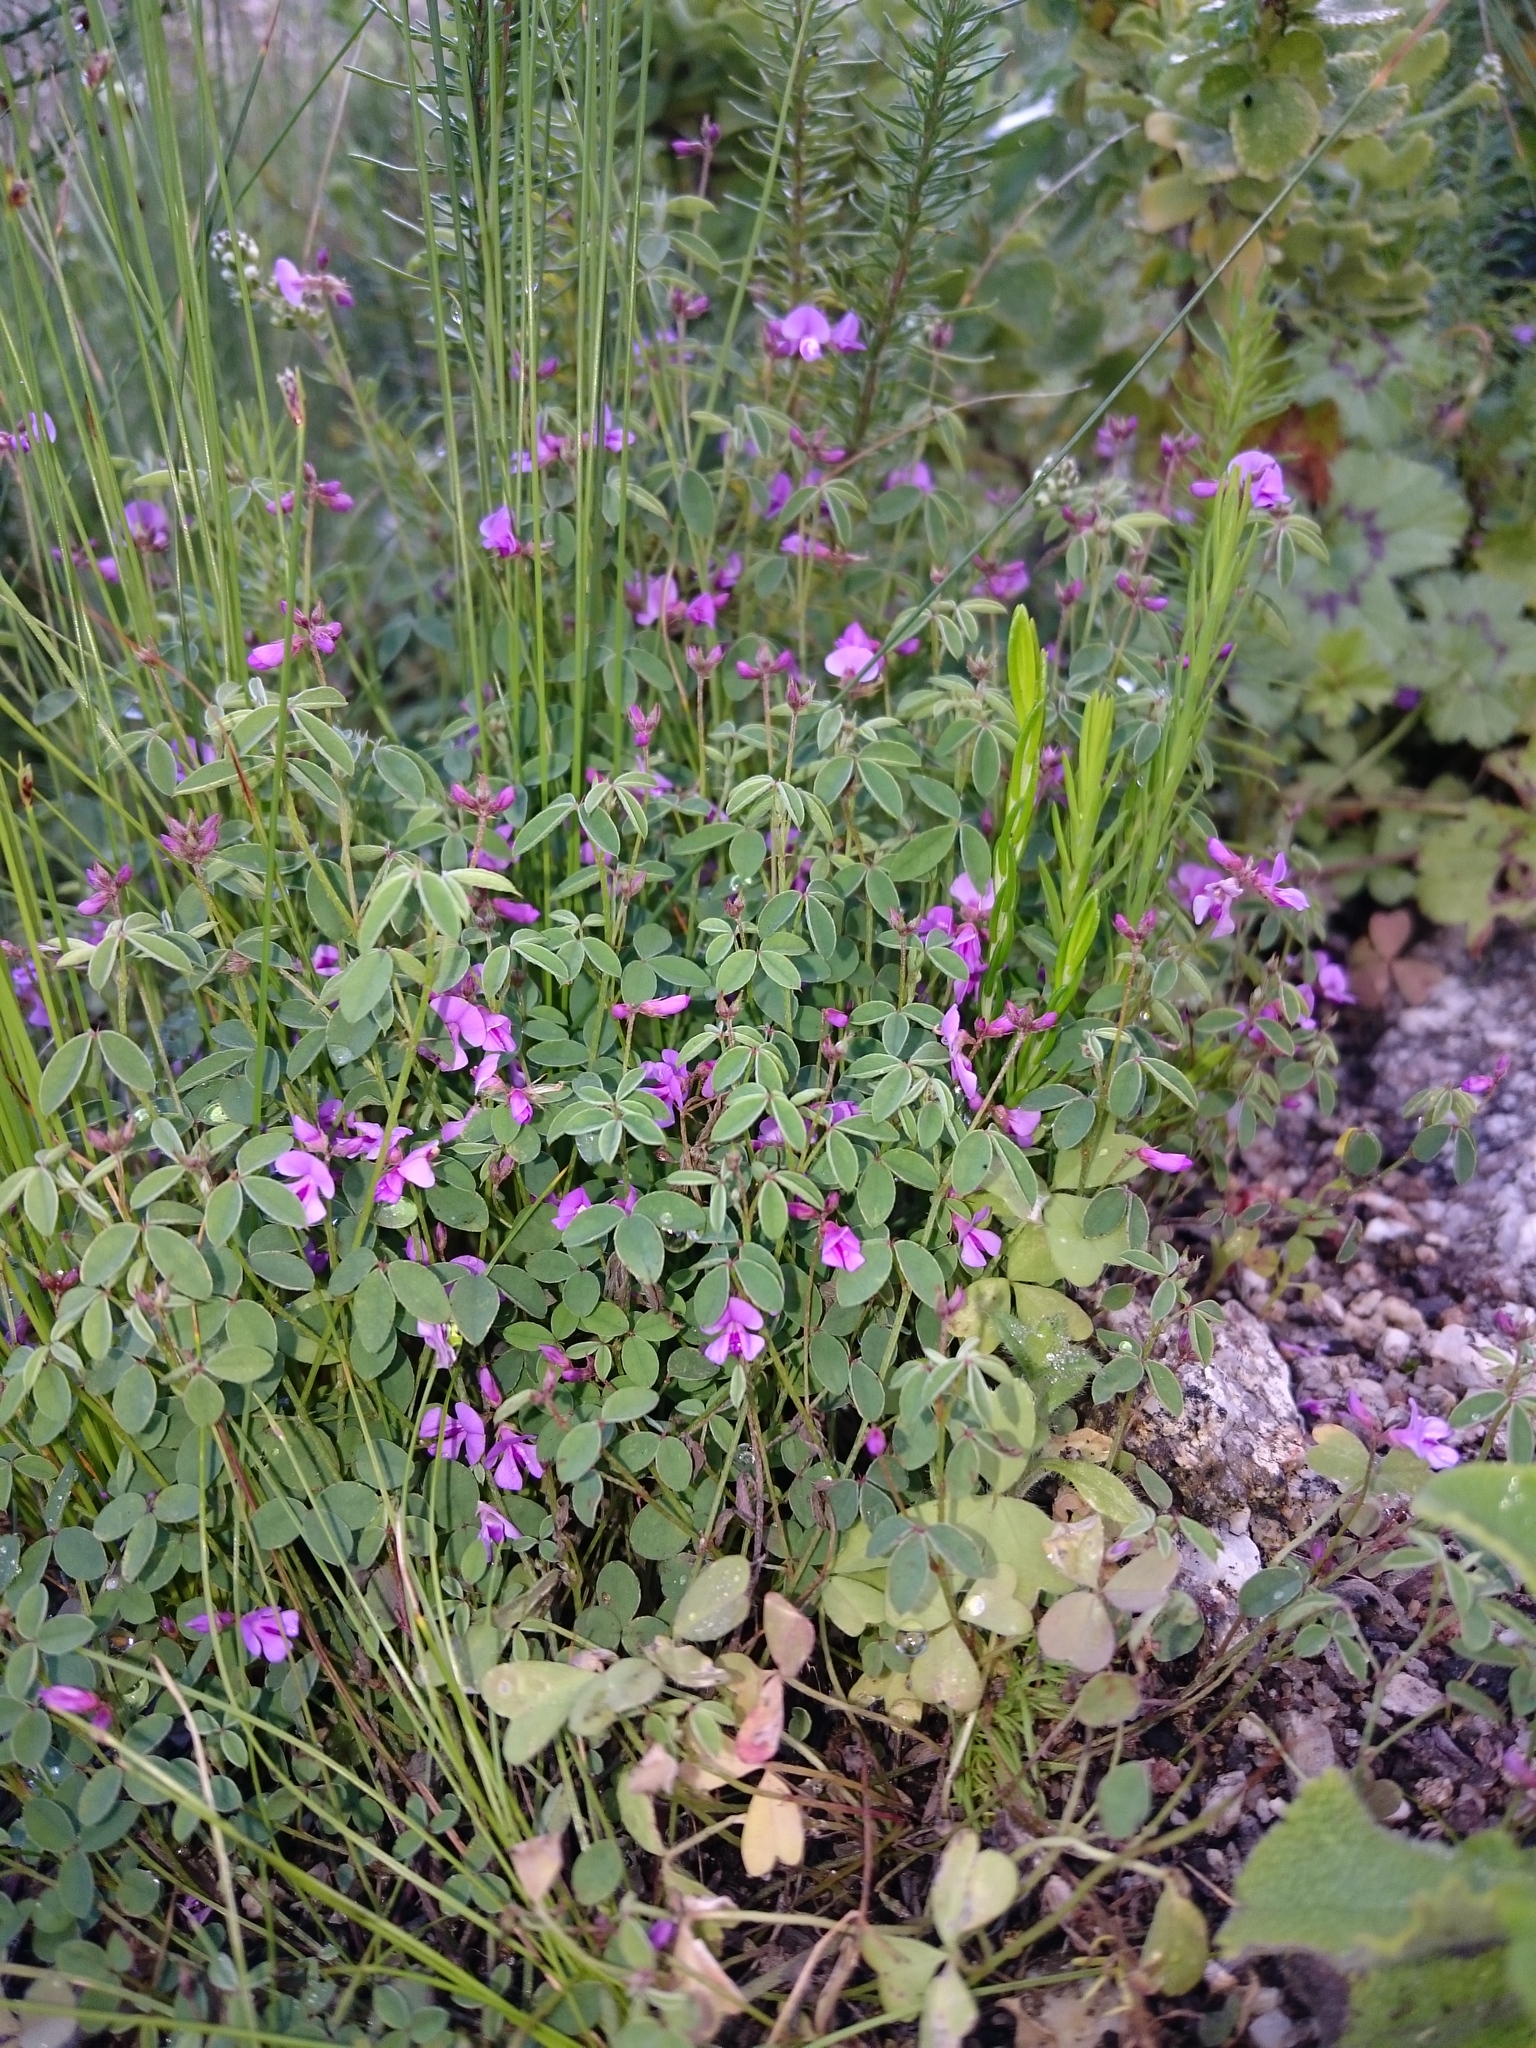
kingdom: Plantae
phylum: Tracheophyta
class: Magnoliopsida
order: Fabales
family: Fabaceae
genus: Indigofera
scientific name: Indigofera gracilis
